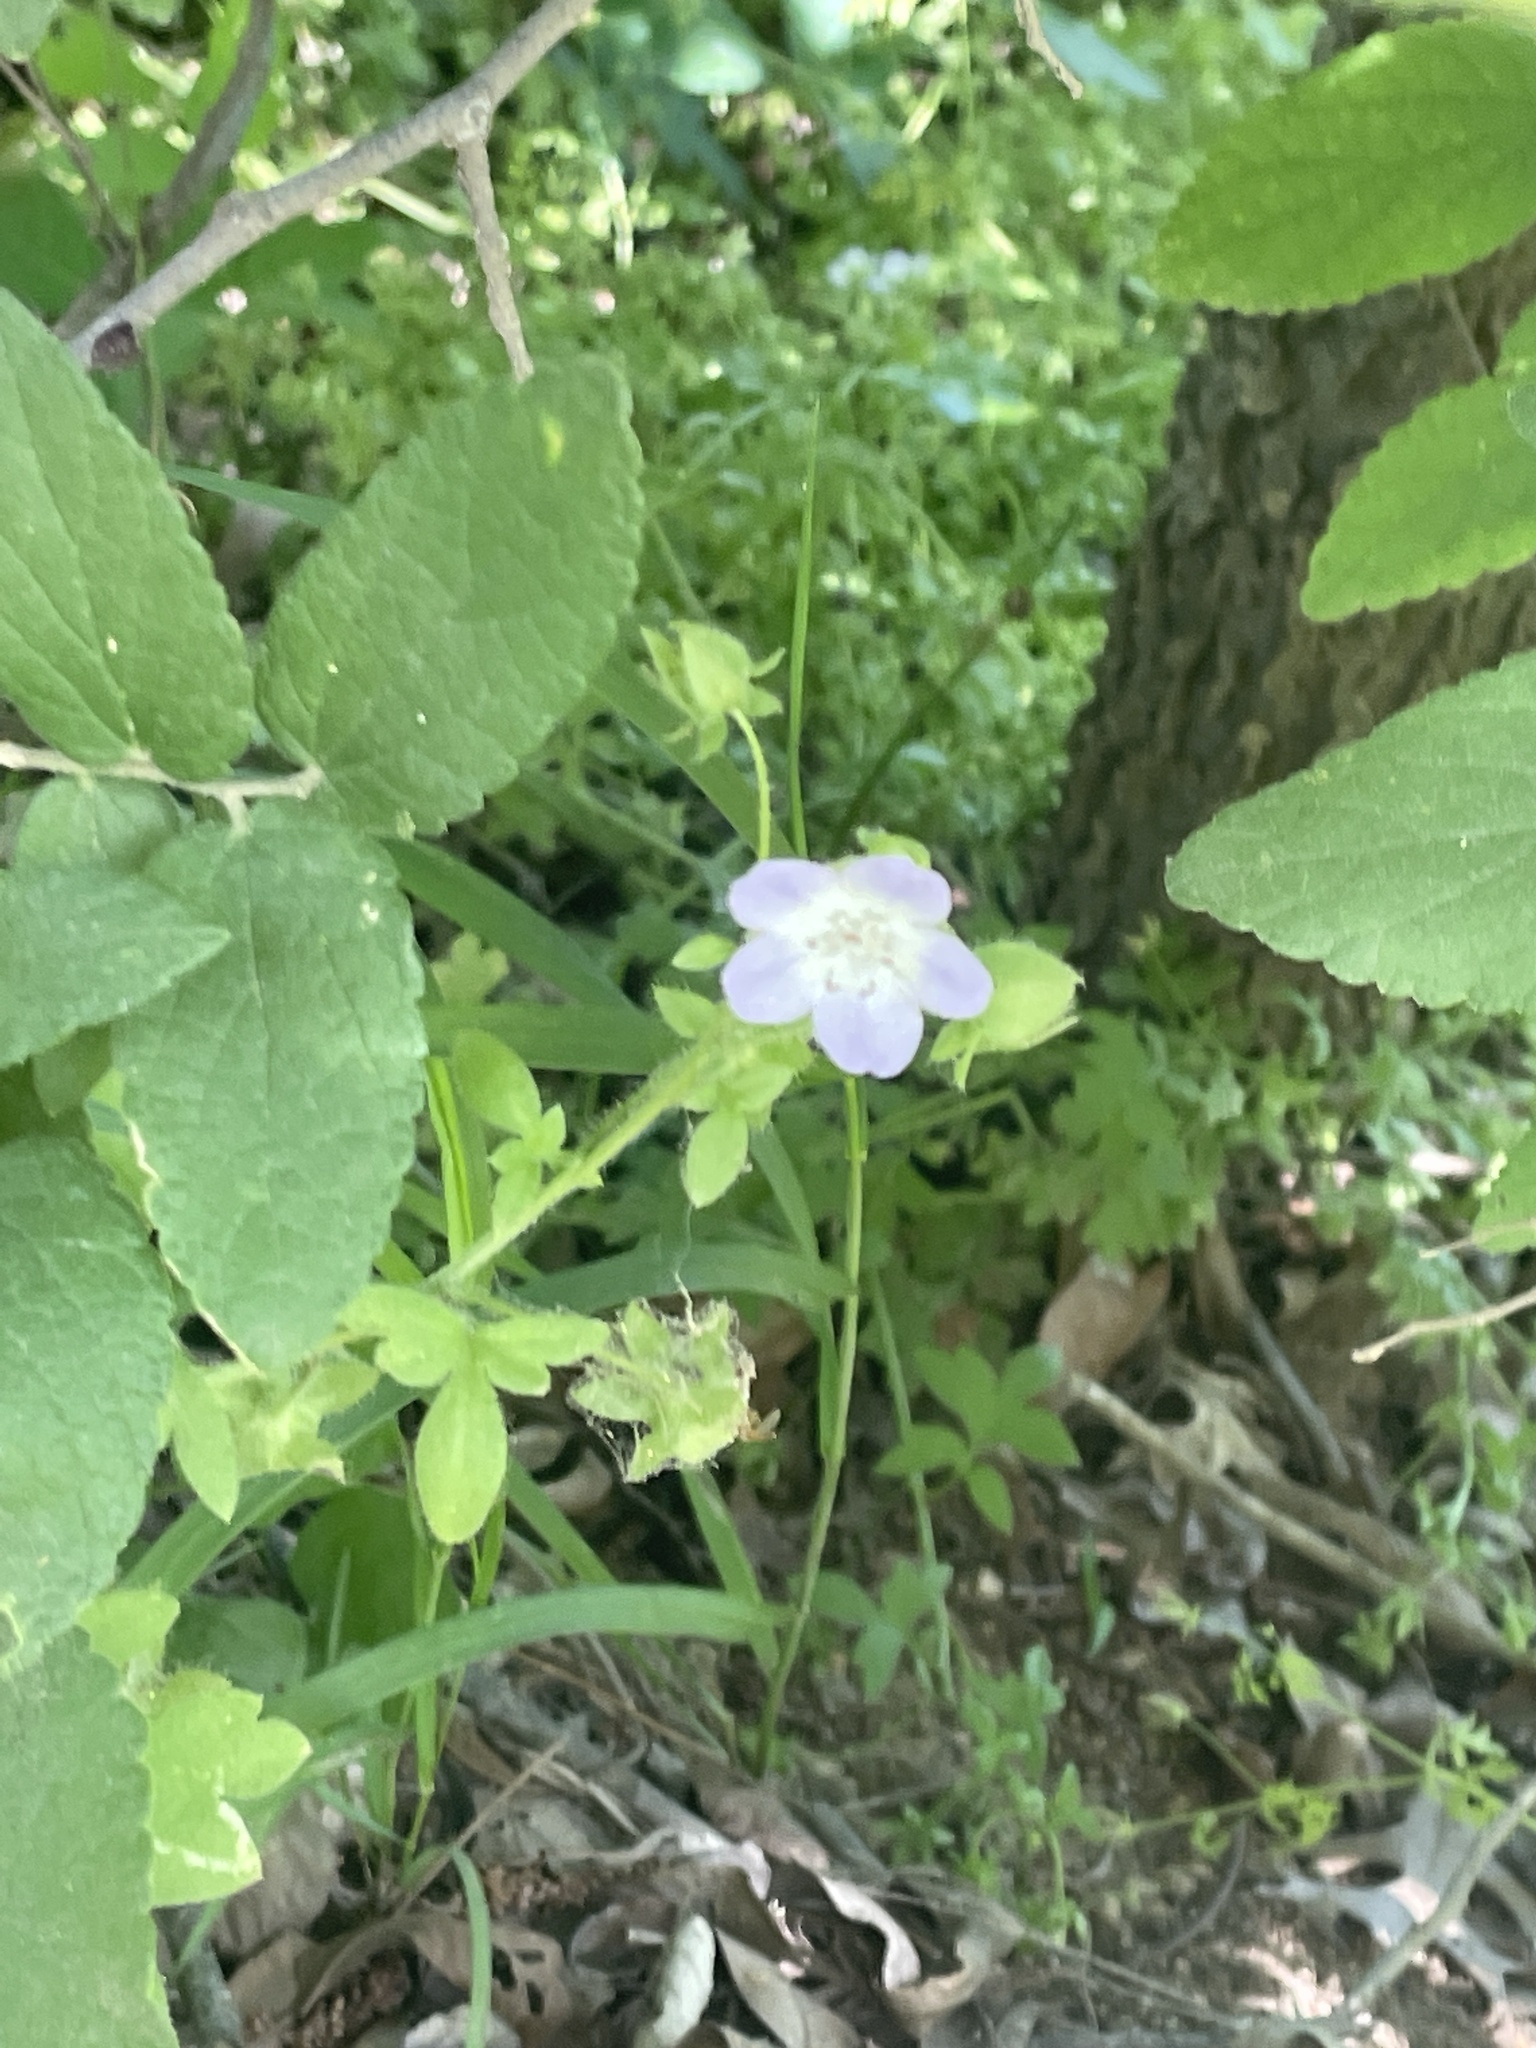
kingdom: Plantae
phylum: Tracheophyta
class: Magnoliopsida
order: Boraginales
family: Hydrophyllaceae
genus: Nemophila
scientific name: Nemophila phacelioides
